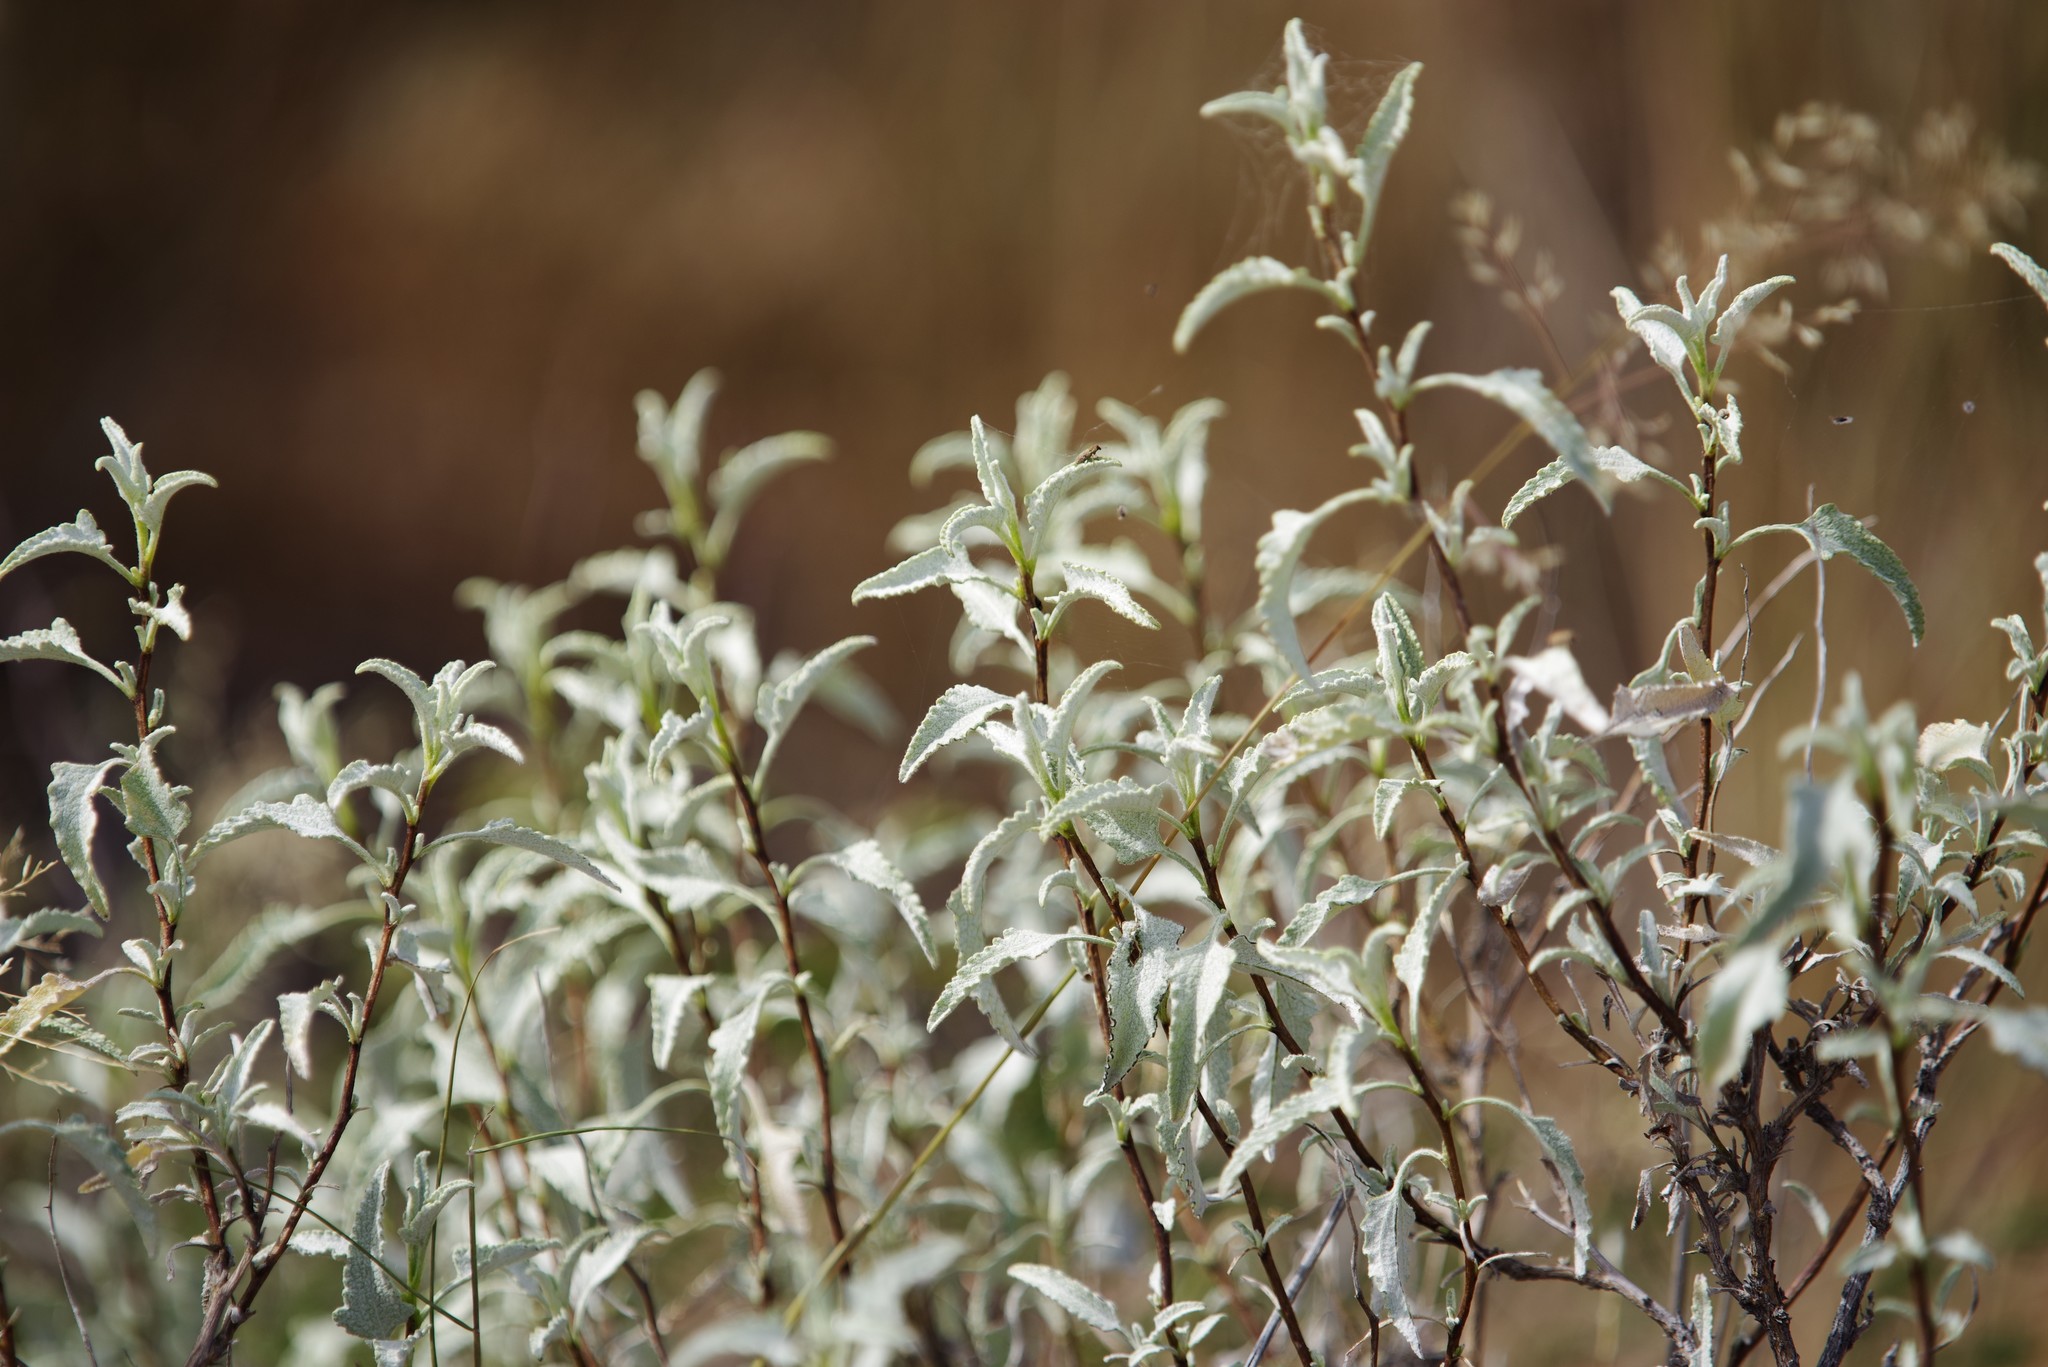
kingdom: Plantae
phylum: Tracheophyta
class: Magnoliopsida
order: Asterales
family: Asteraceae
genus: Ambrosia
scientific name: Ambrosia deltoidea
